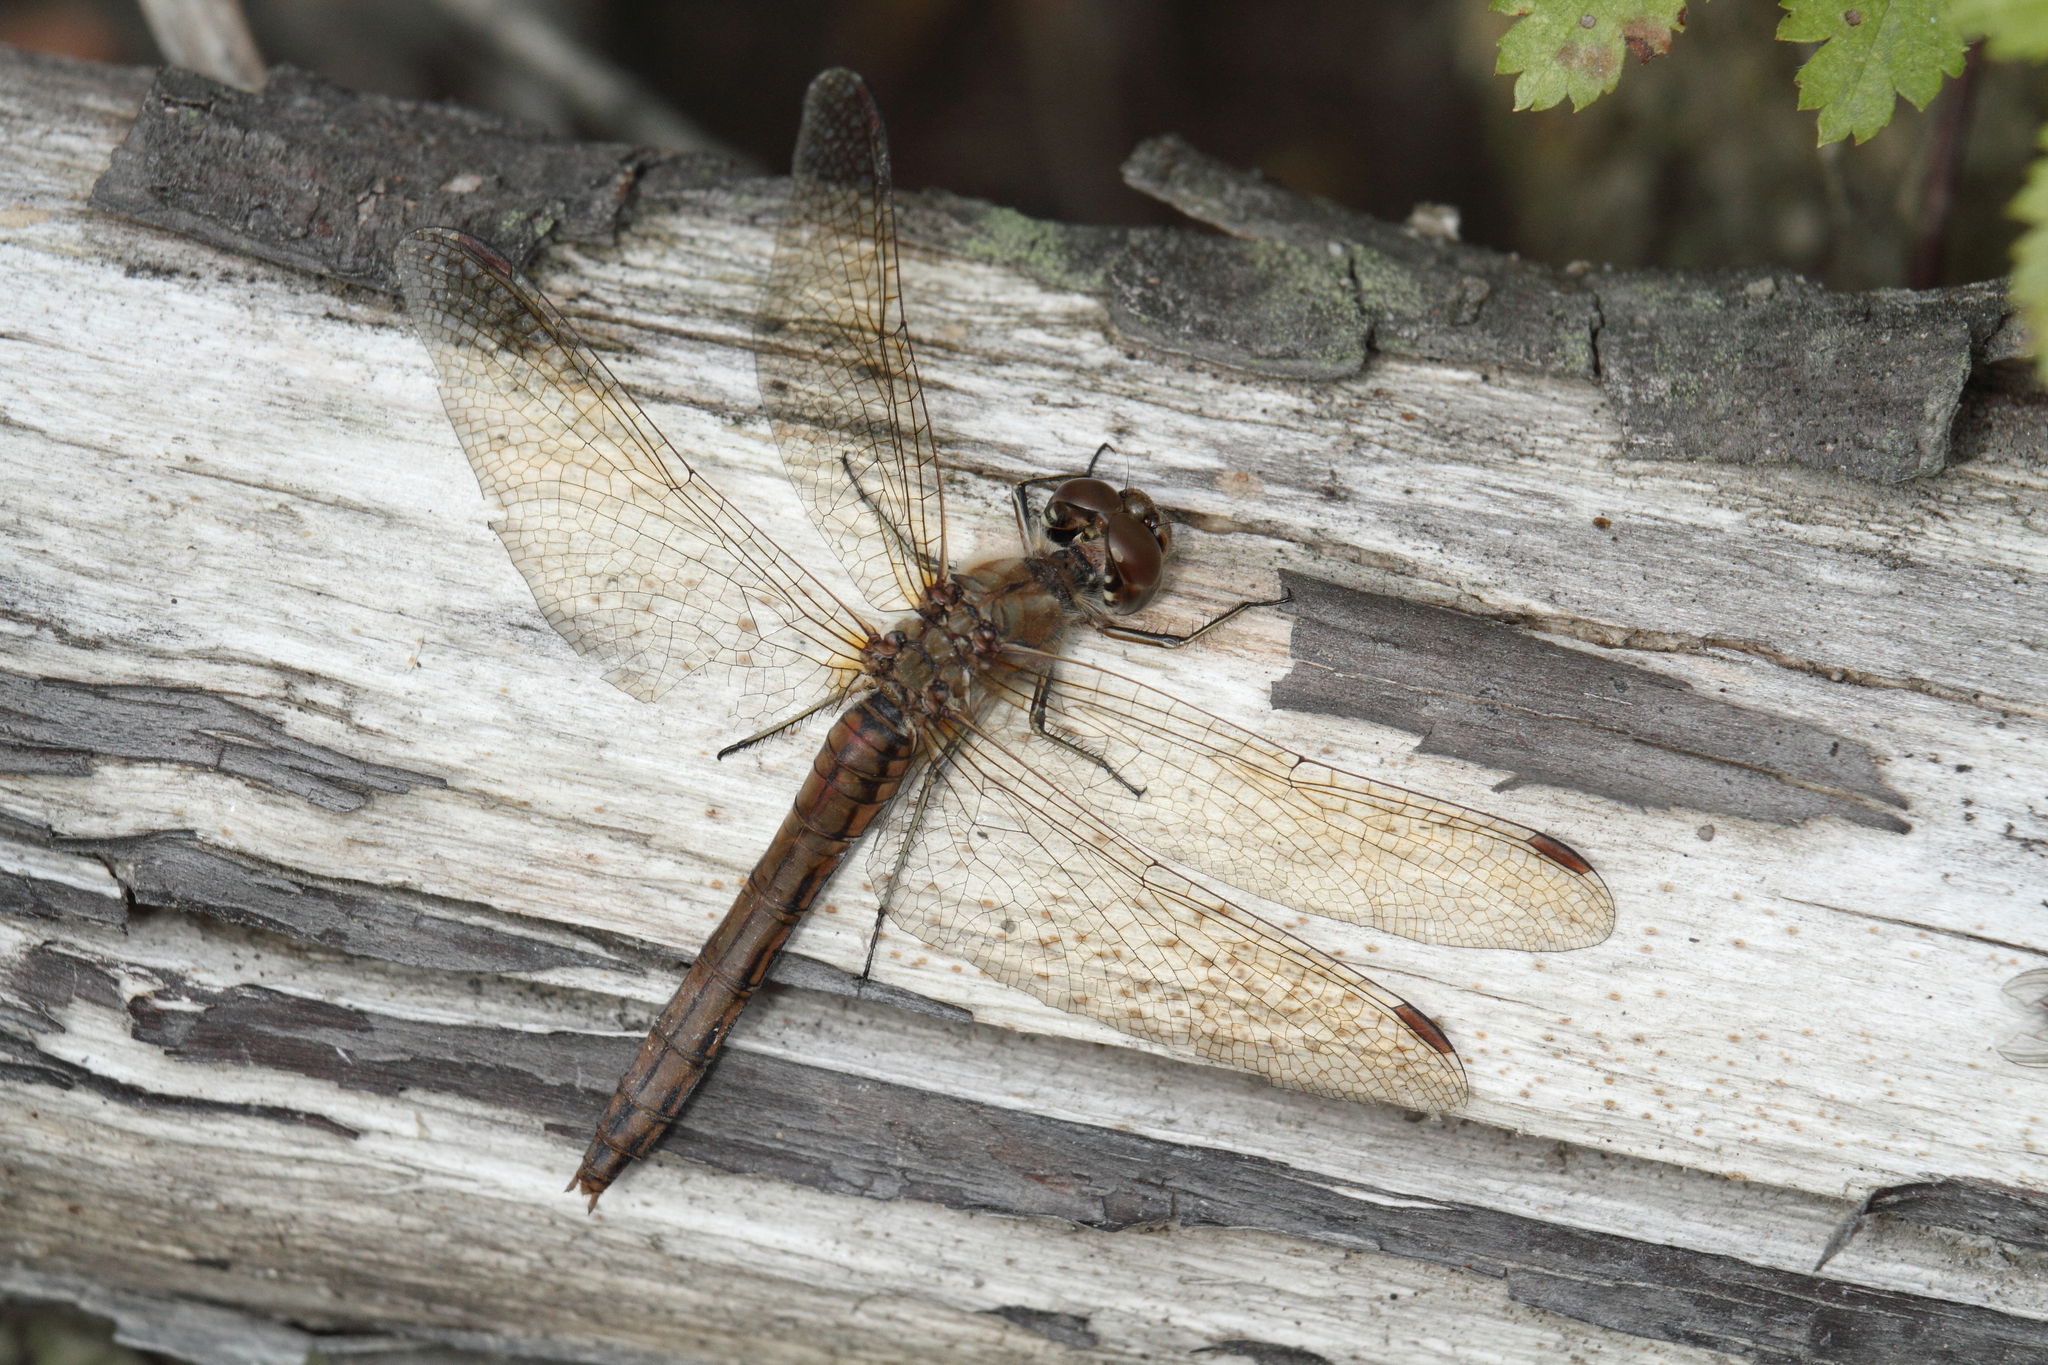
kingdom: Animalia
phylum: Arthropoda
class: Insecta
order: Odonata
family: Libellulidae
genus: Sympetrum
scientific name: Sympetrum vulgatum
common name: Vagrant darter
